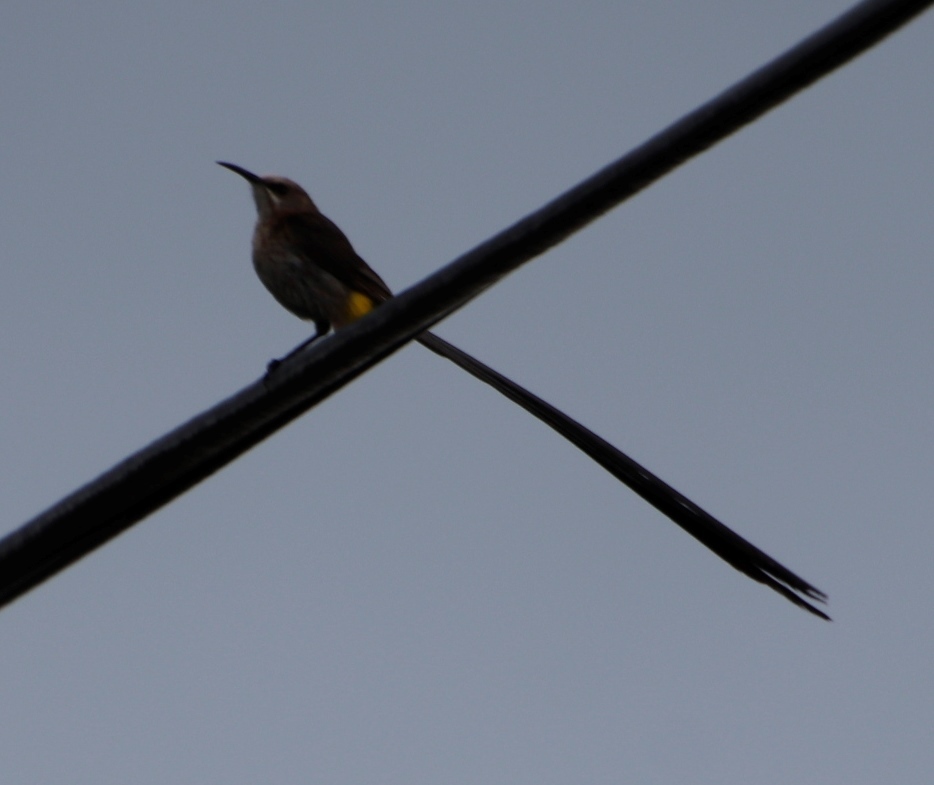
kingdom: Animalia
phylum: Chordata
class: Aves
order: Passeriformes
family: Promeropidae
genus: Promerops
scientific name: Promerops cafer
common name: Cape sugarbird
